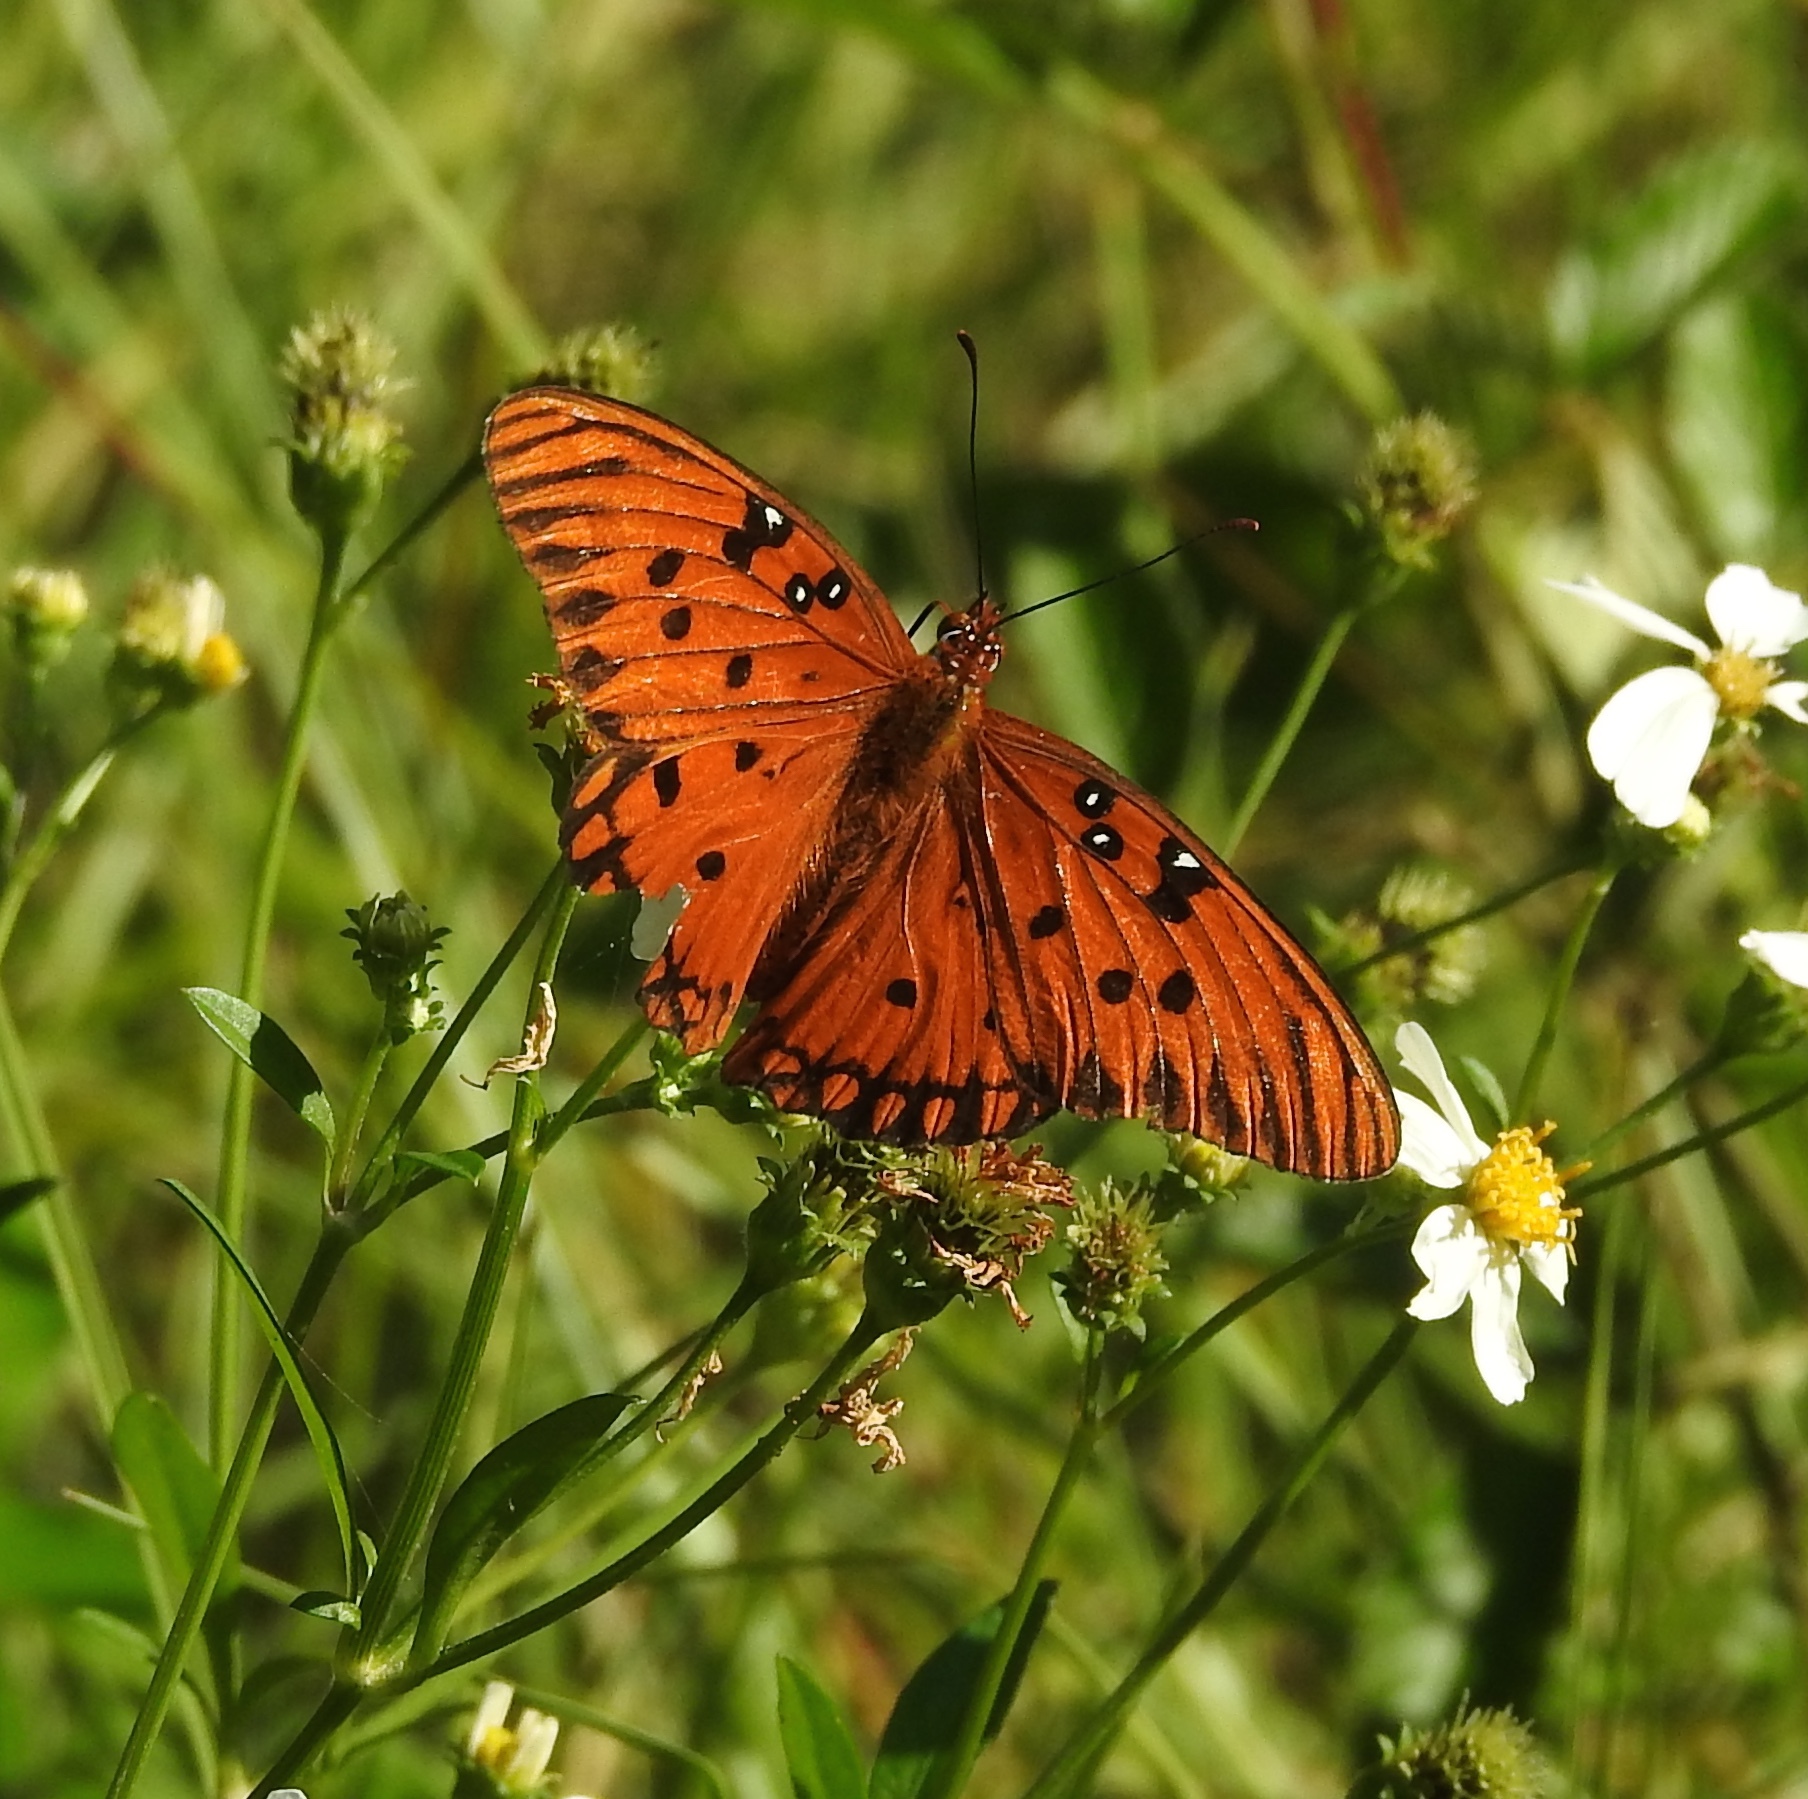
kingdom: Animalia
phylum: Arthropoda
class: Insecta
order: Lepidoptera
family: Nymphalidae
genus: Dione
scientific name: Dione vanillae
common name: Gulf fritillary
